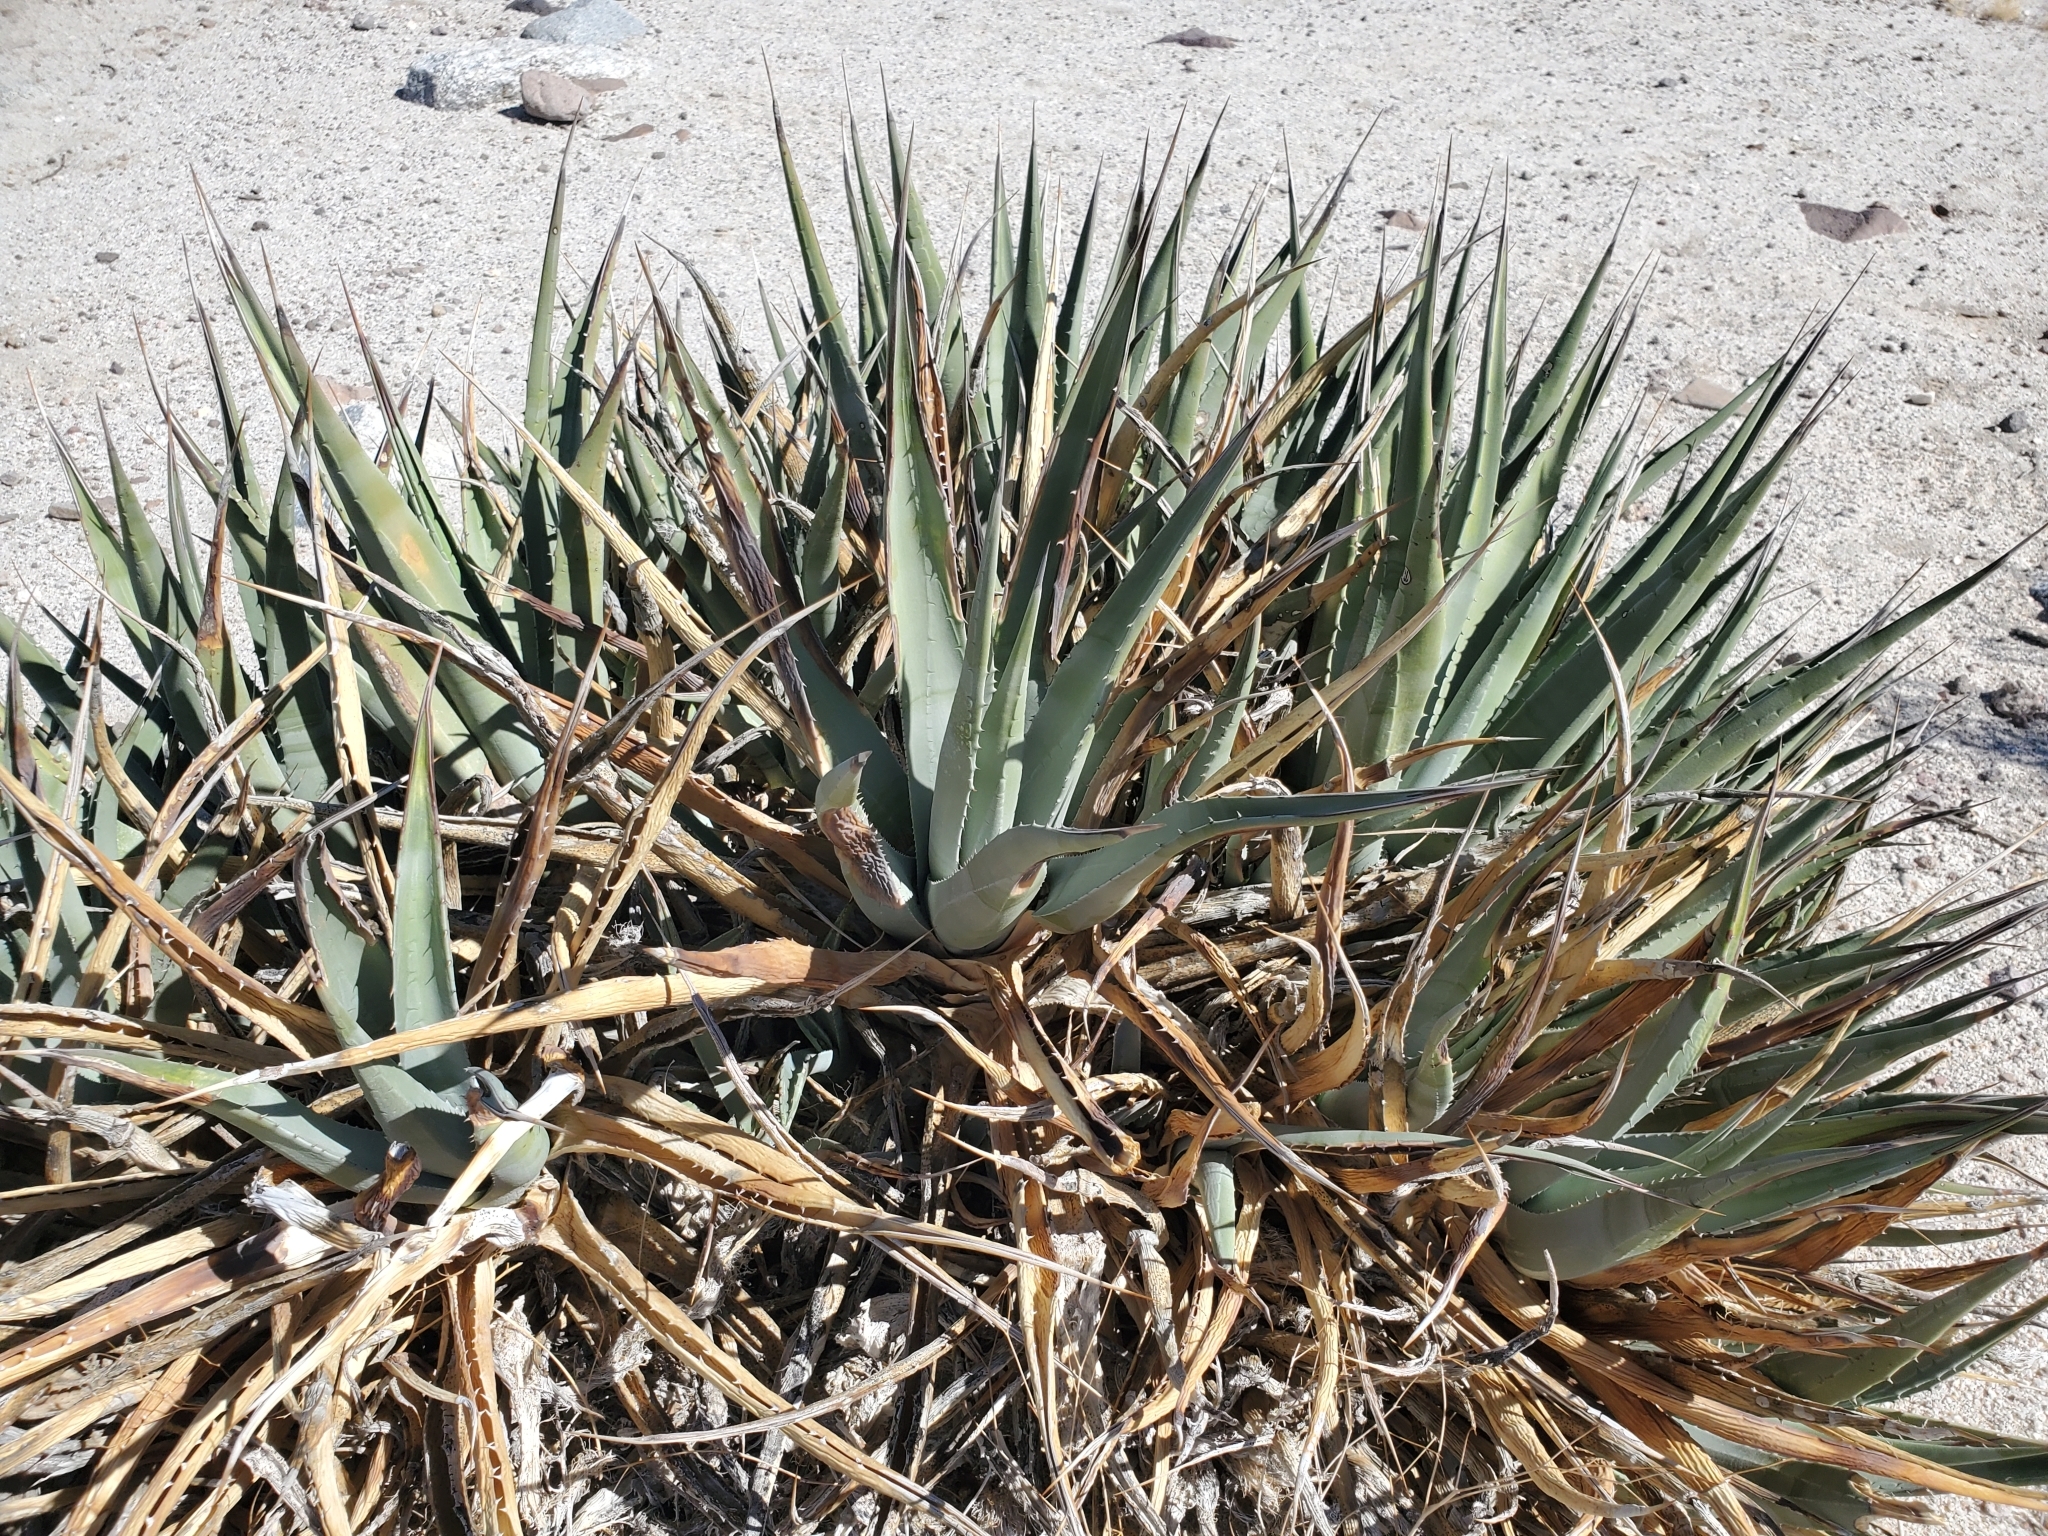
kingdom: Plantae
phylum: Tracheophyta
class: Liliopsida
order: Asparagales
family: Asparagaceae
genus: Agave
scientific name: Agave deserti
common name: Desert agave
